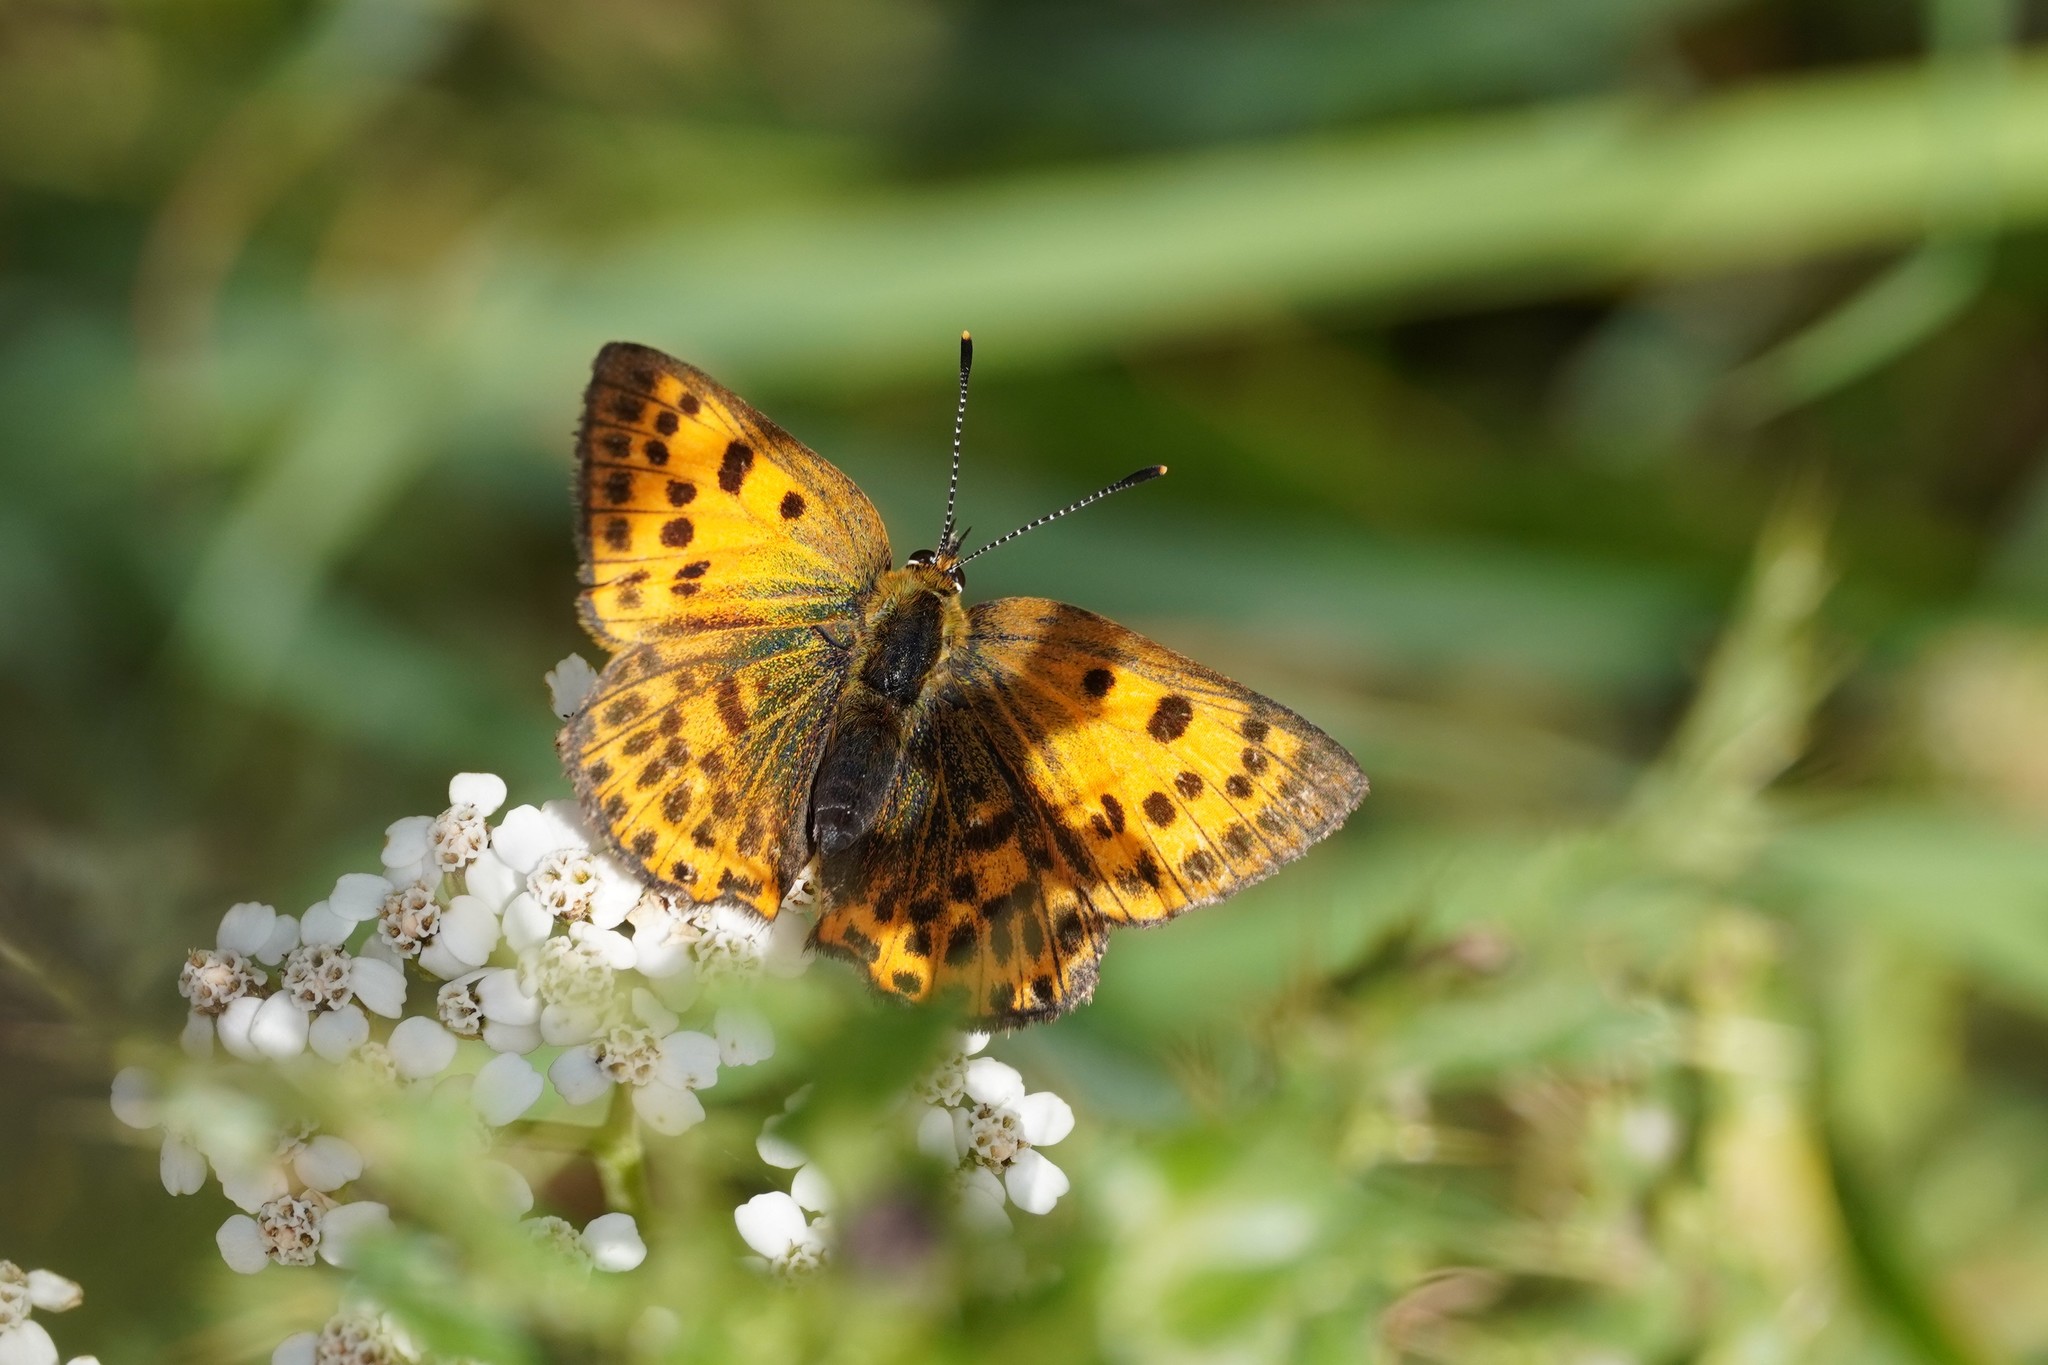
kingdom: Animalia
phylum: Arthropoda
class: Insecta
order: Lepidoptera
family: Lycaenidae
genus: Lycaena
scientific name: Lycaena virgaureae
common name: Scarce copper
